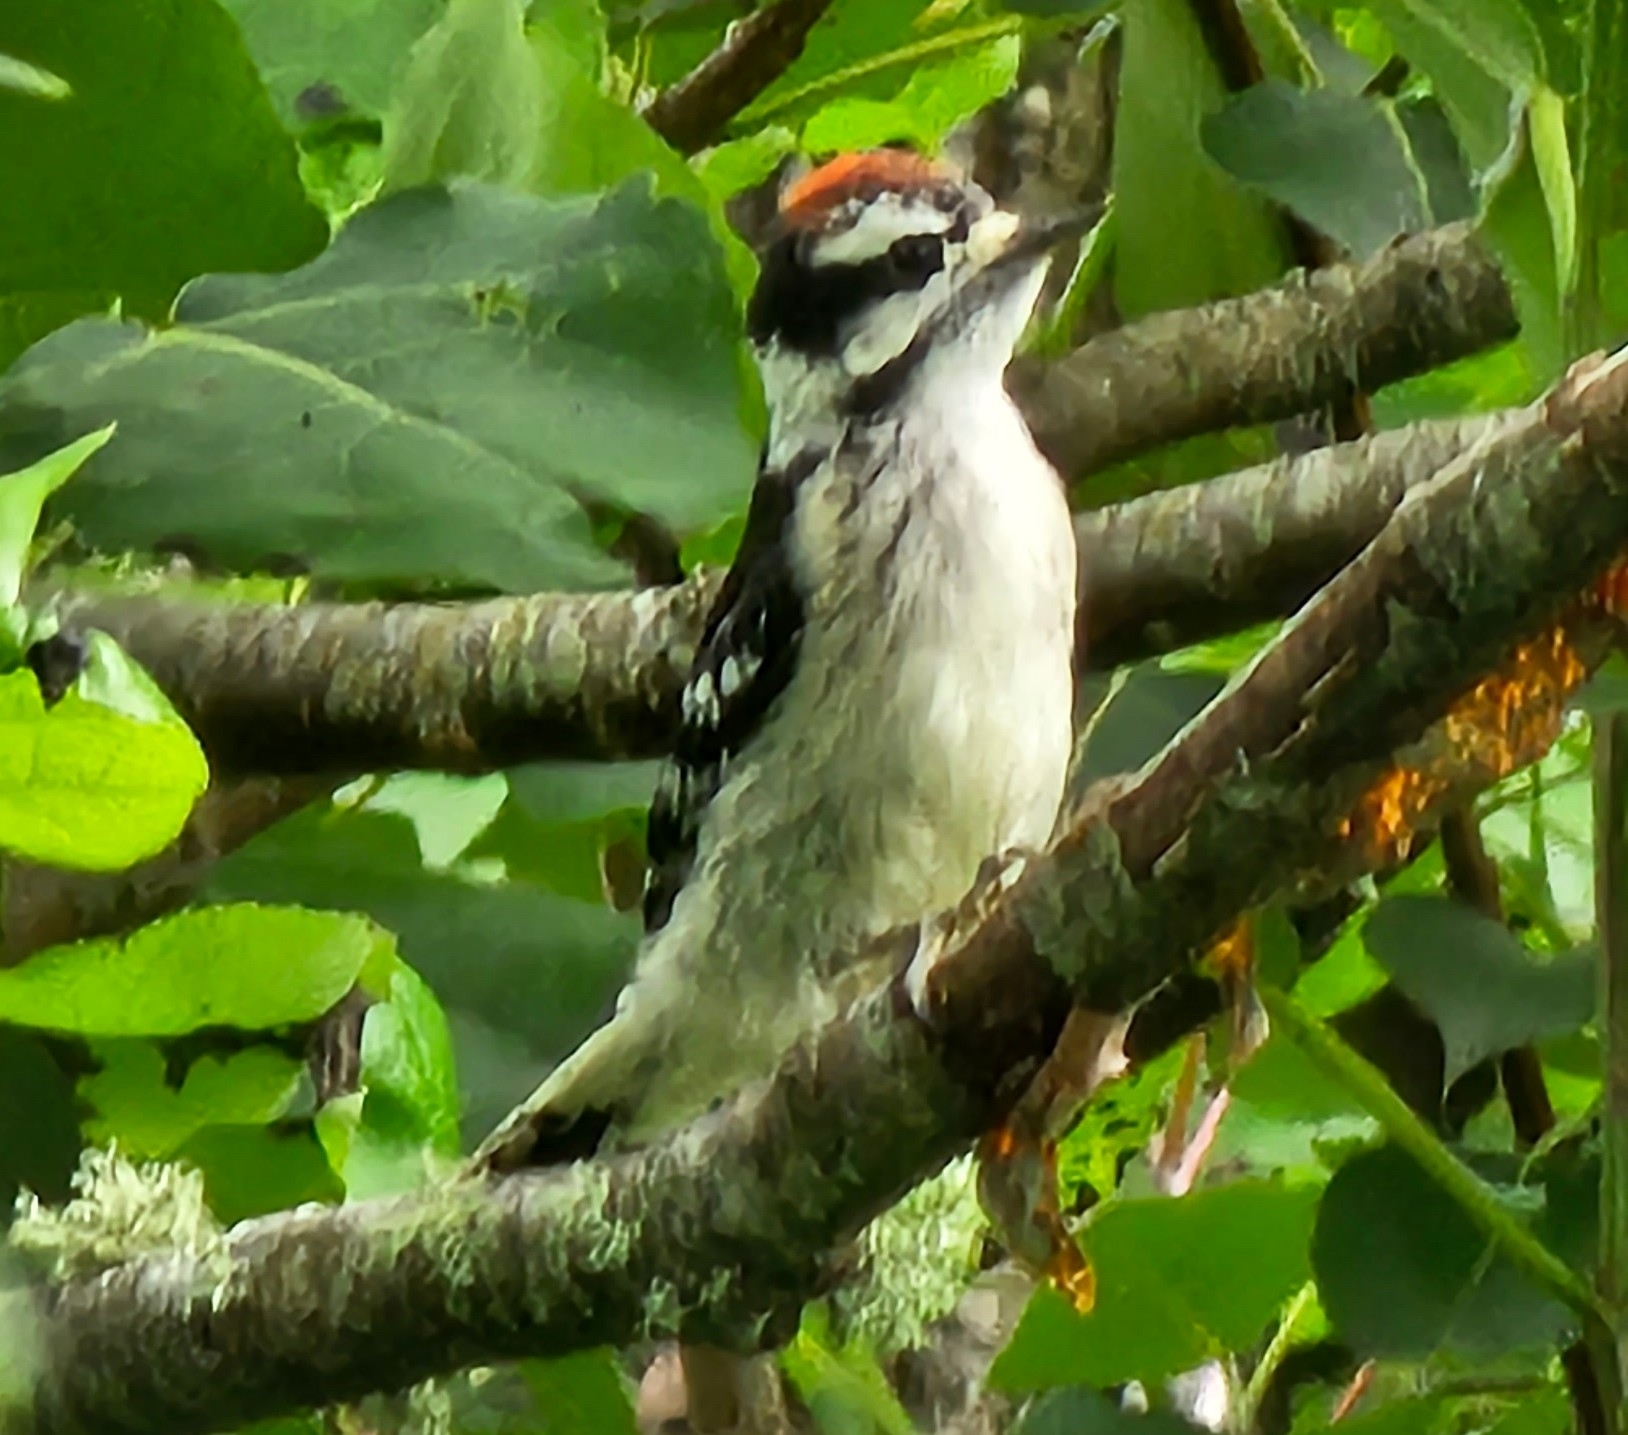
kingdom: Animalia
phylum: Chordata
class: Aves
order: Piciformes
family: Picidae
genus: Dryobates
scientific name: Dryobates pubescens
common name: Downy woodpecker
